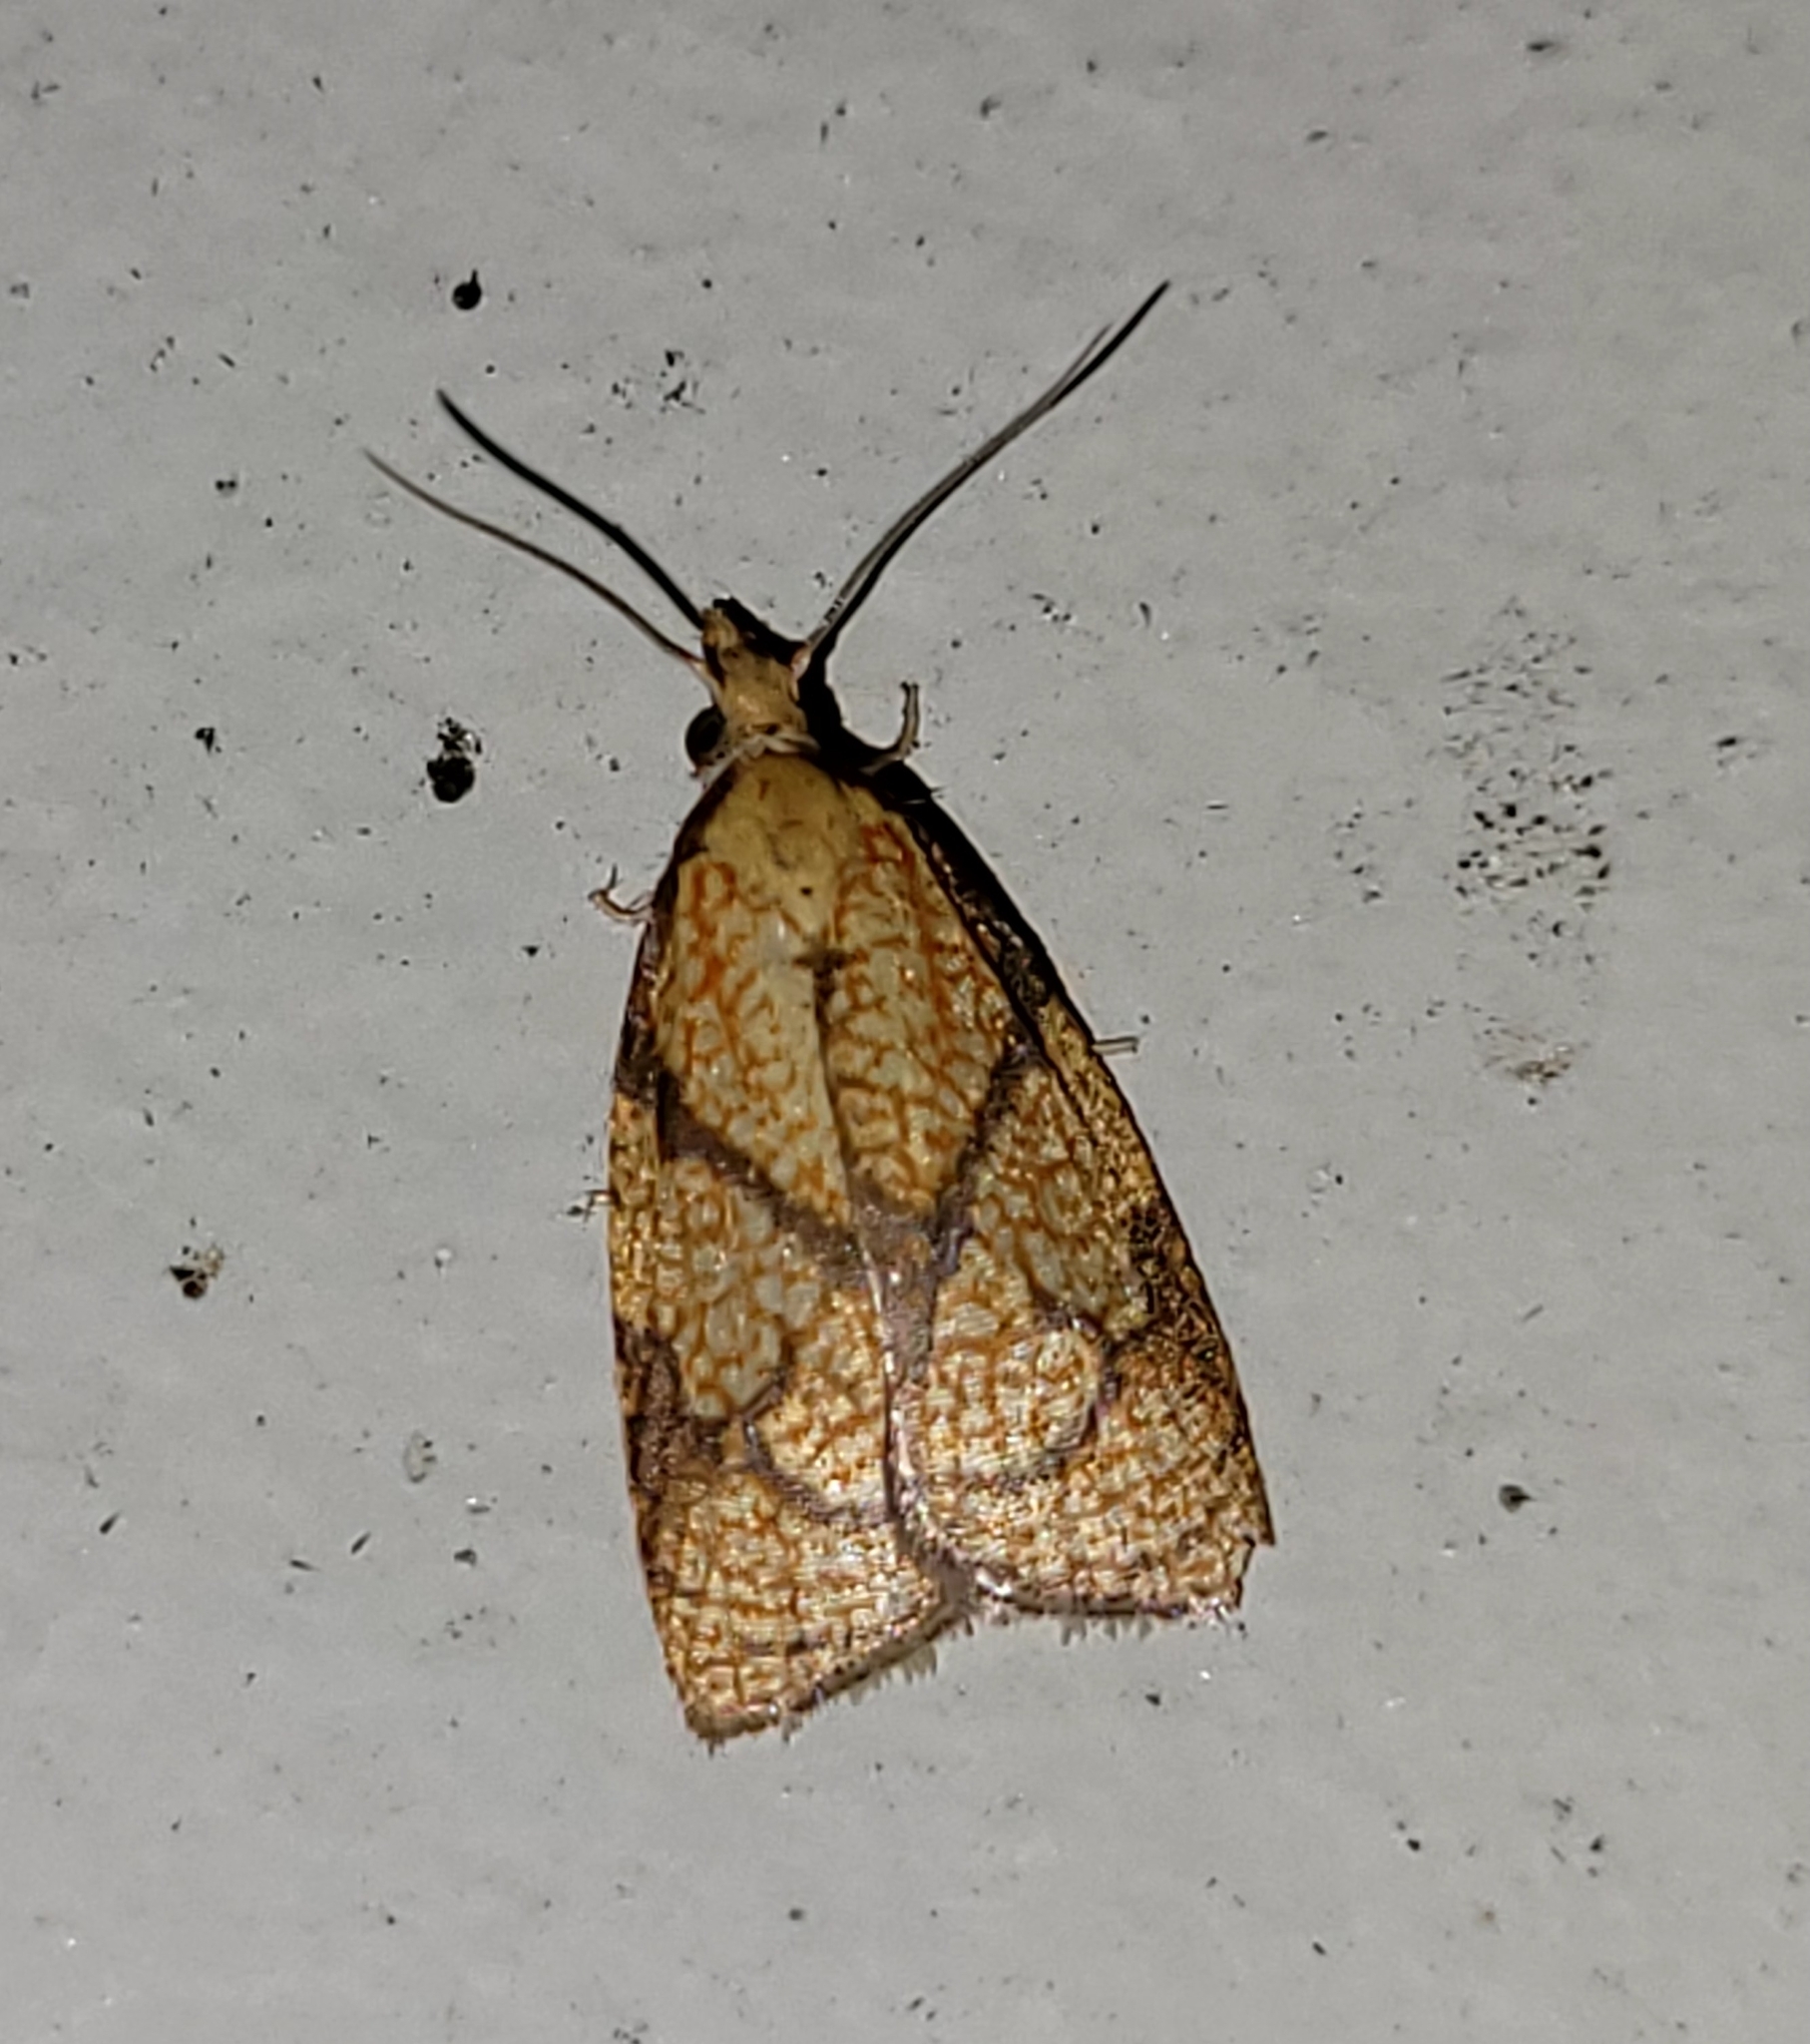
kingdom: Animalia
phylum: Arthropoda
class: Insecta
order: Lepidoptera
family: Tortricidae
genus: Cenopis
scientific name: Cenopis reticulatana
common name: Reticulated fruitworm moth
